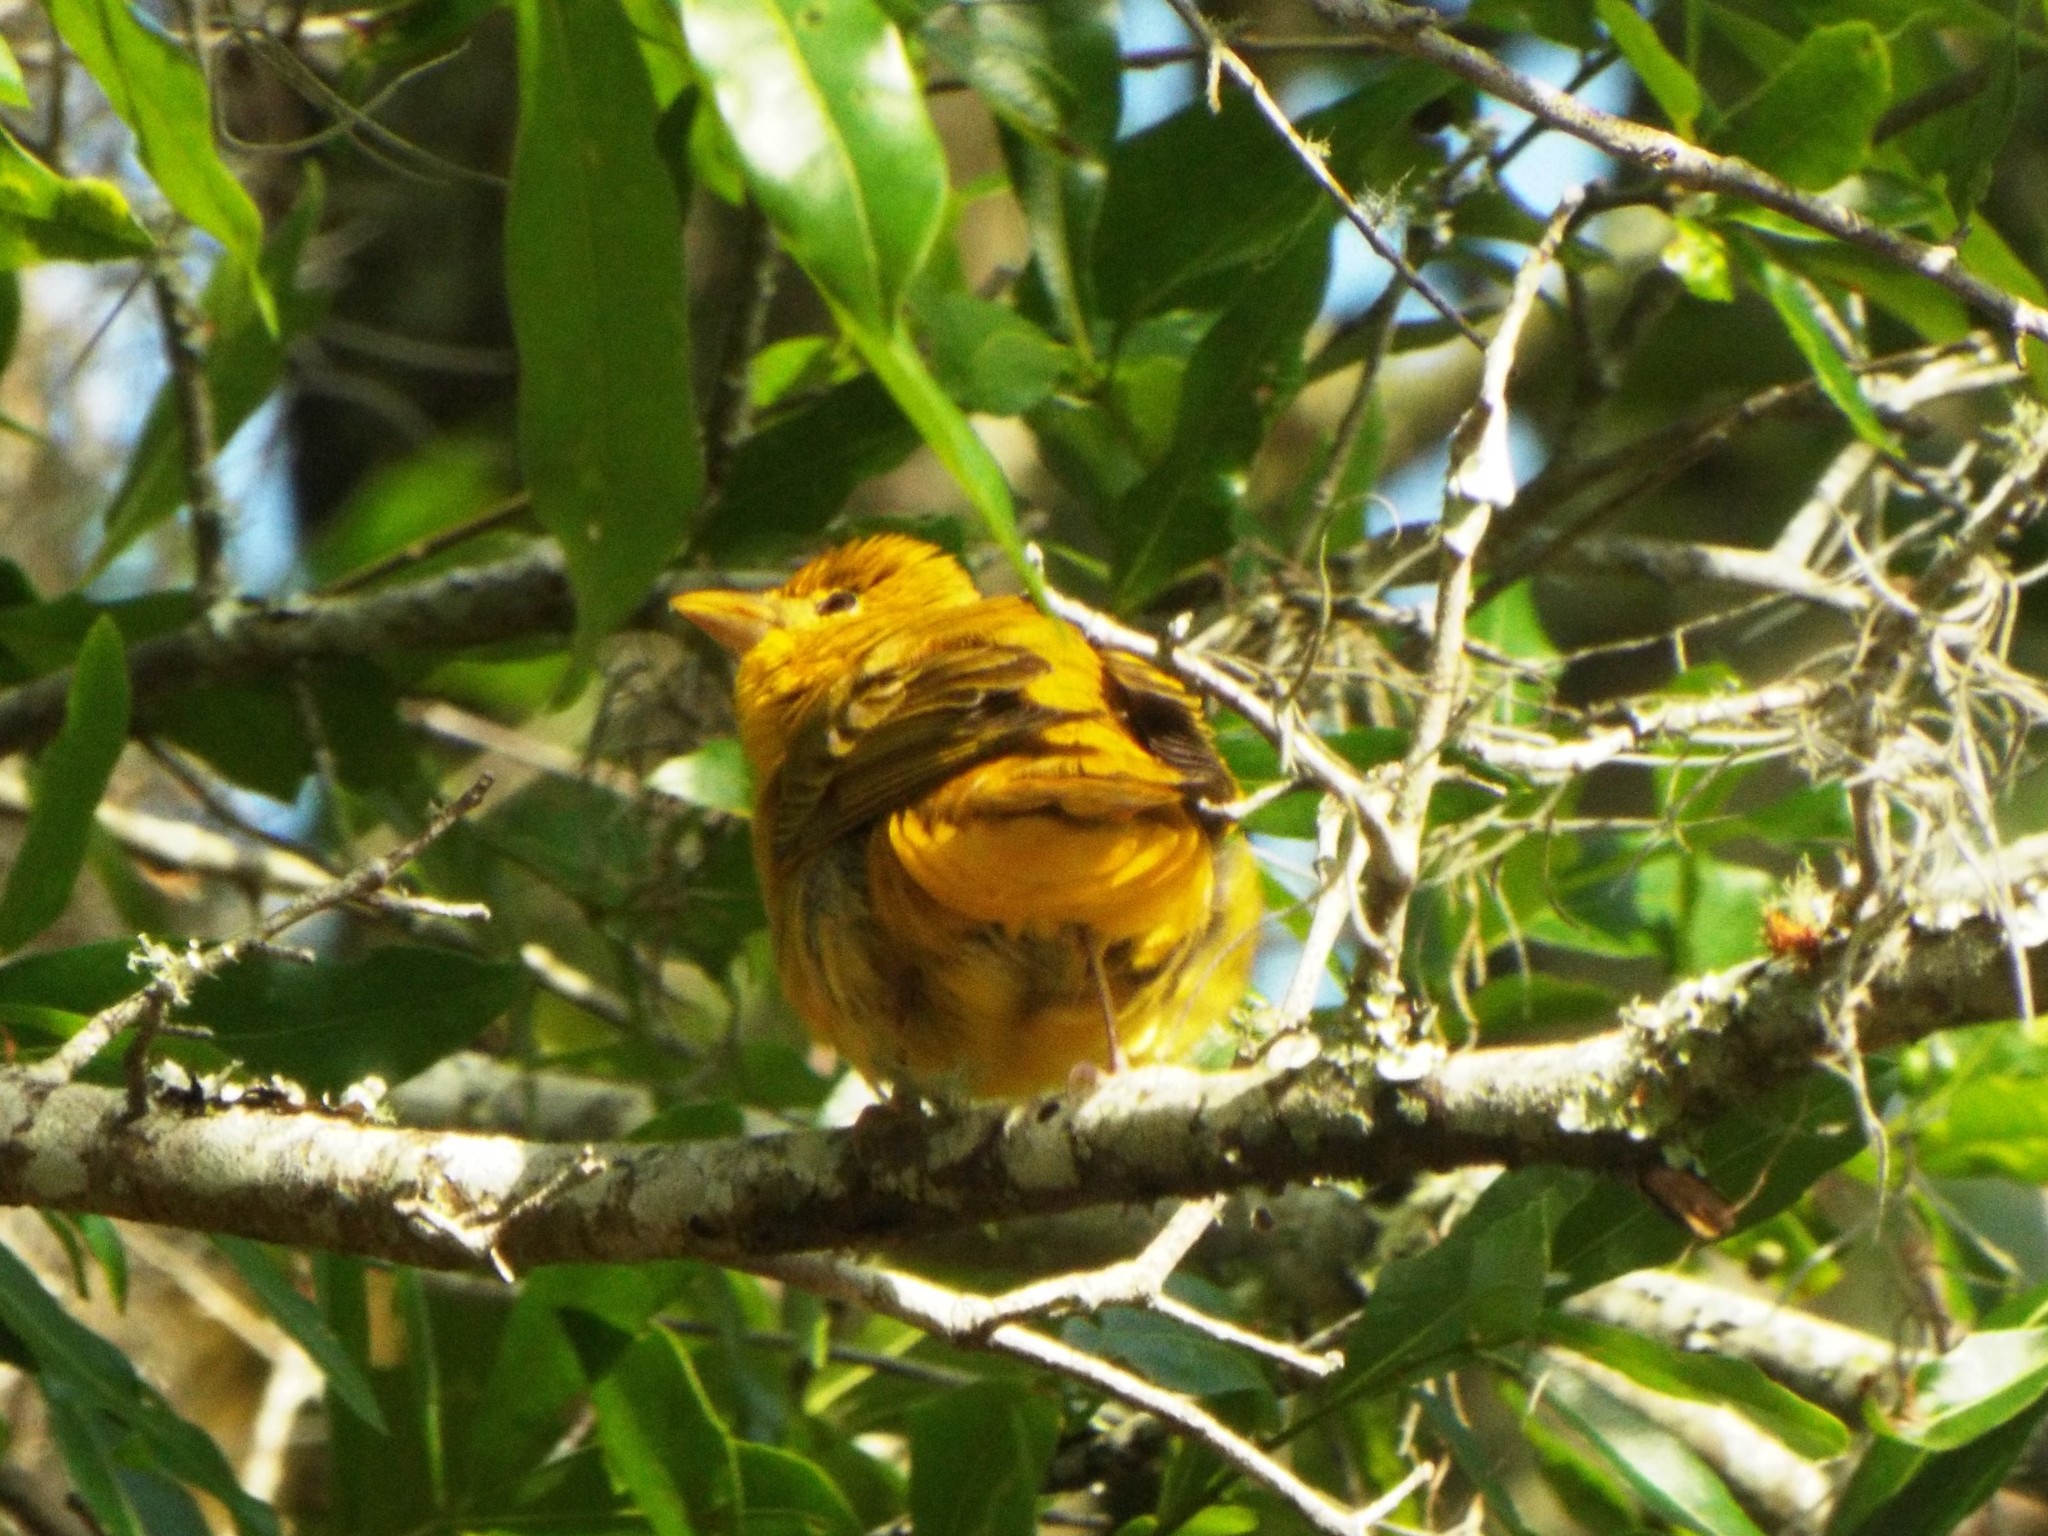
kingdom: Animalia
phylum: Chordata
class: Aves
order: Passeriformes
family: Cardinalidae
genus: Piranga
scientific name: Piranga rubra
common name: Summer tanager
